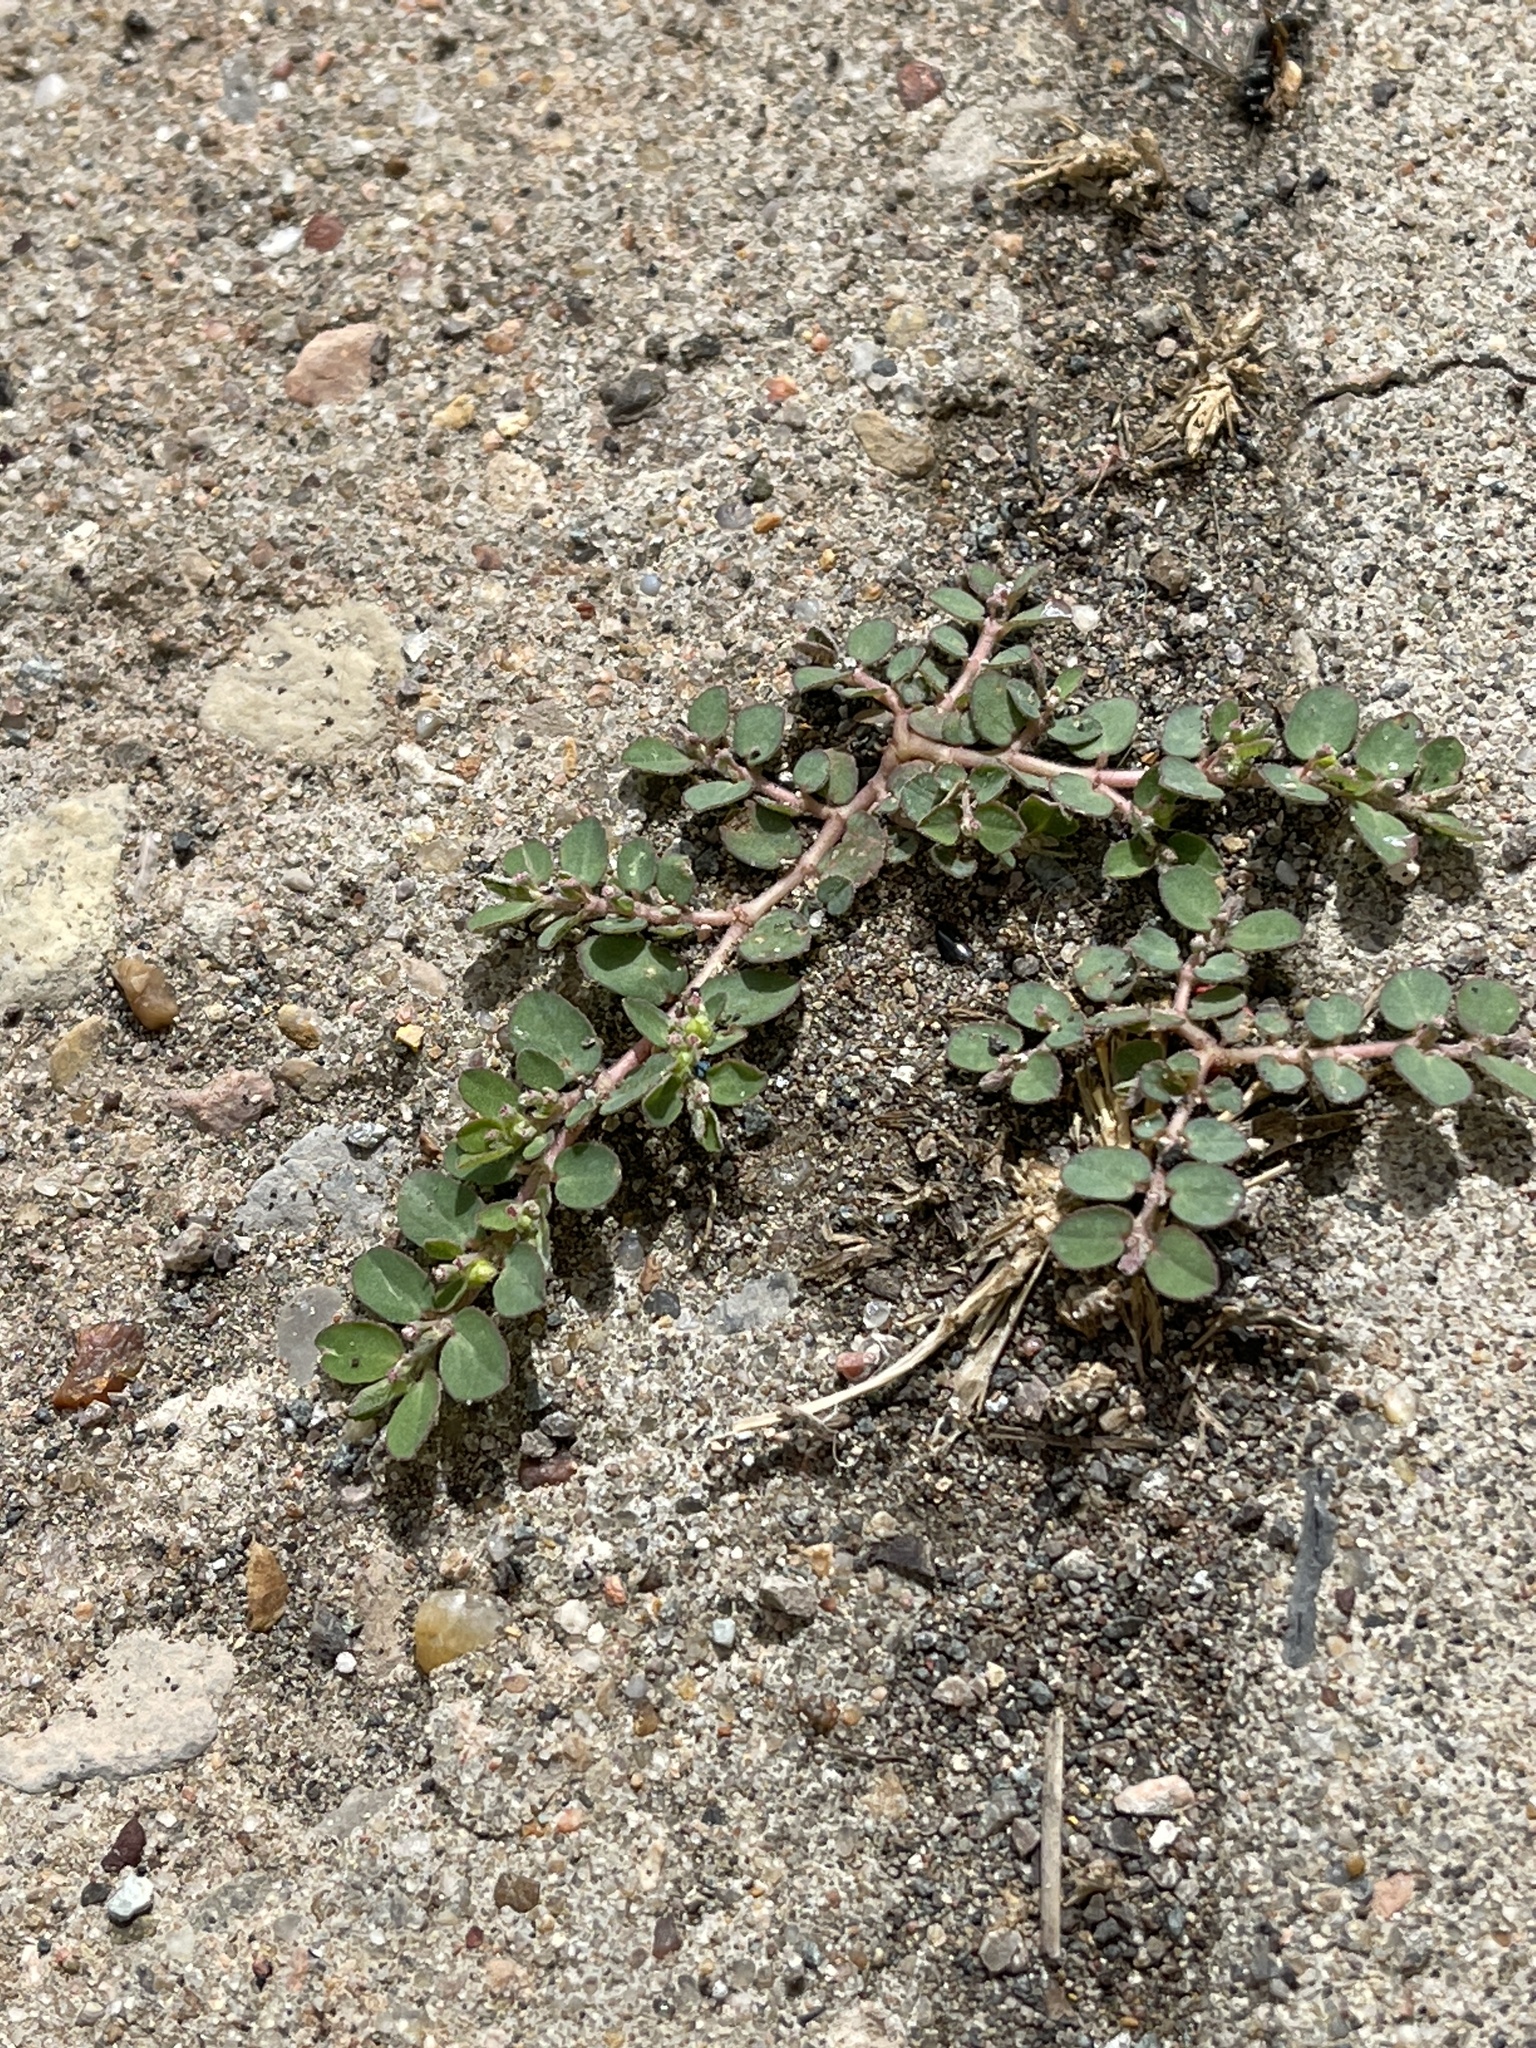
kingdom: Plantae
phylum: Tracheophyta
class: Magnoliopsida
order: Malpighiales
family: Euphorbiaceae
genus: Euphorbia
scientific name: Euphorbia prostrata
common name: Prostrate sandmat
